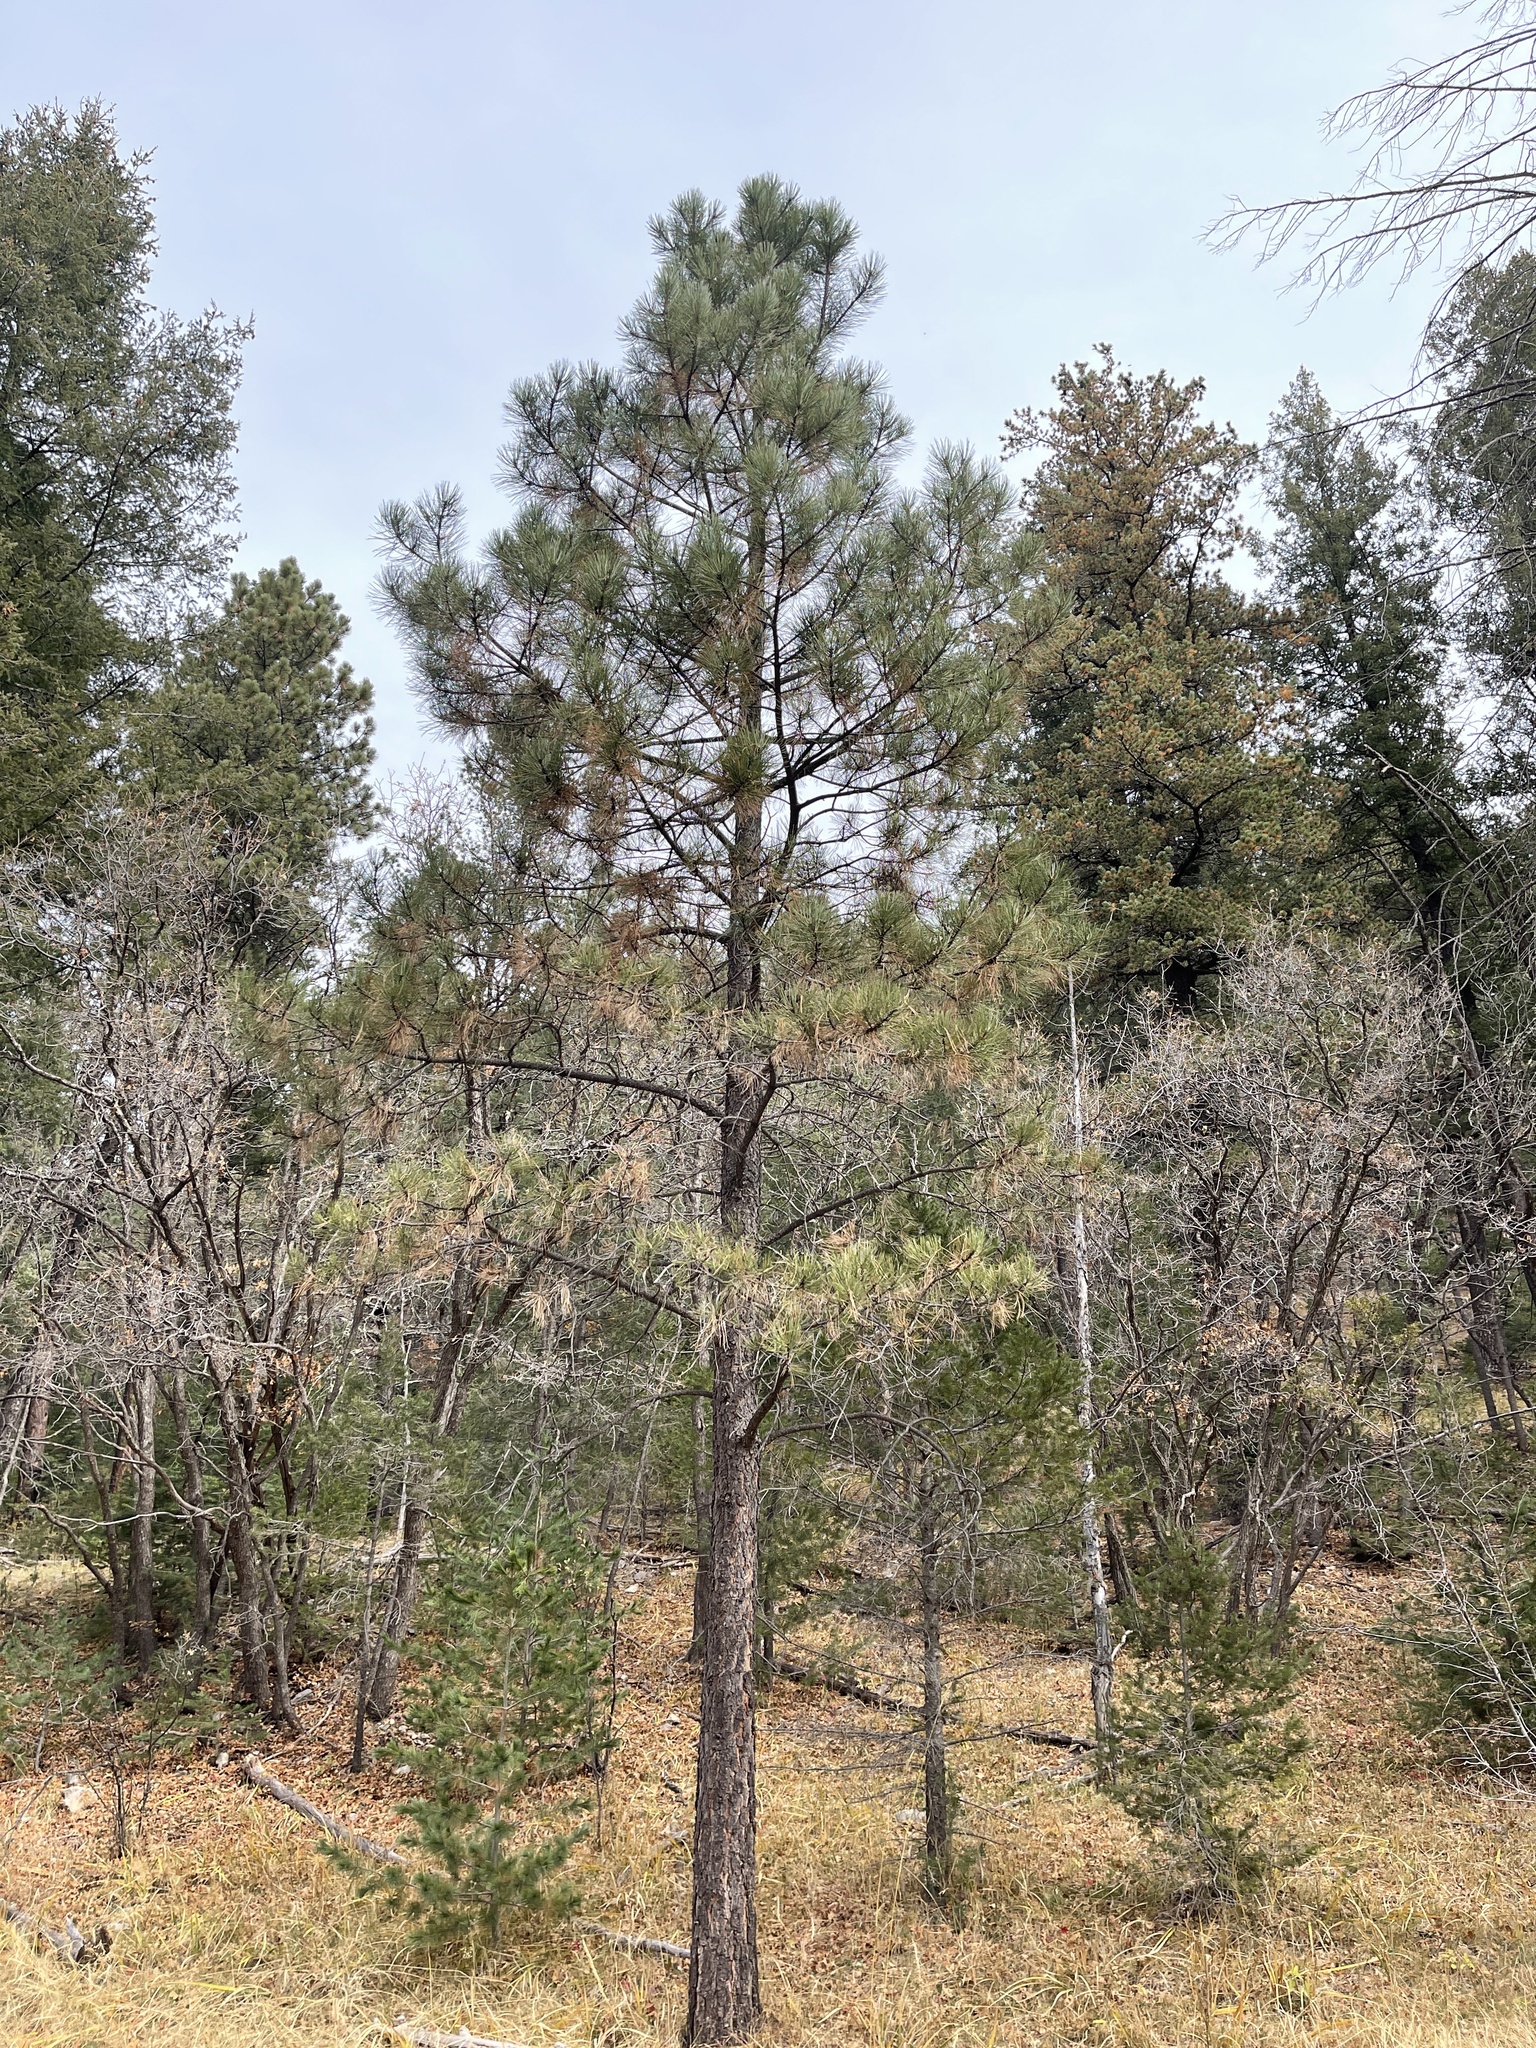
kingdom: Plantae
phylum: Tracheophyta
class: Pinopsida
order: Pinales
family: Pinaceae
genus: Pinus
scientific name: Pinus ponderosa
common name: Western yellow-pine
